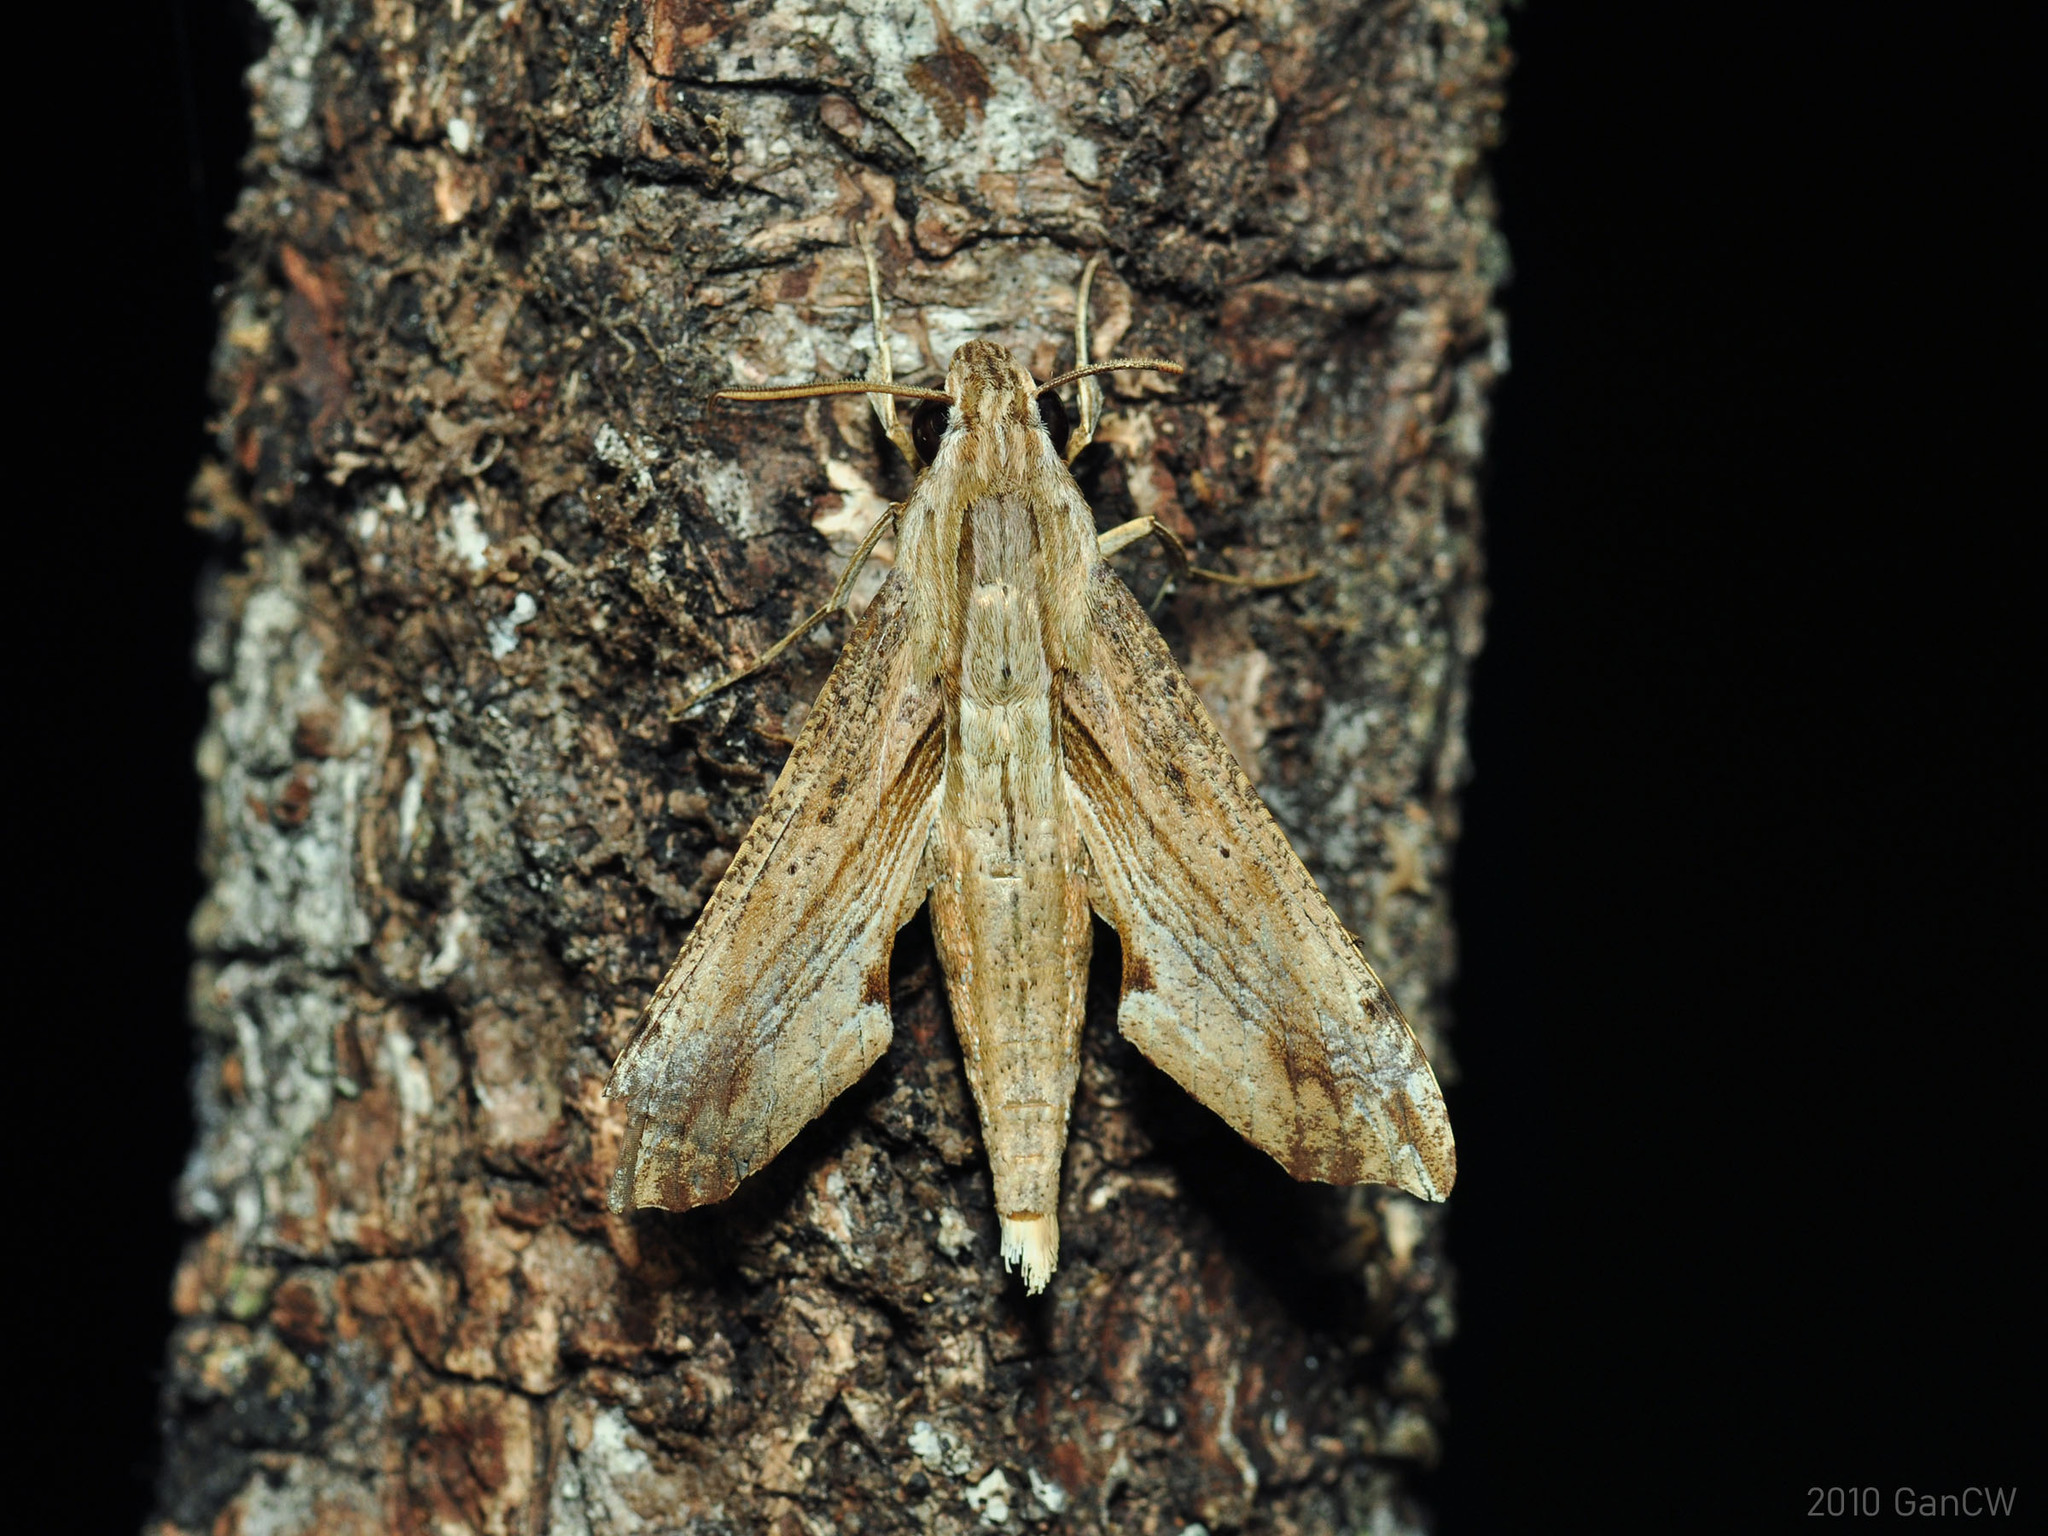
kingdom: Animalia
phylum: Arthropoda
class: Insecta
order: Lepidoptera
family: Sphingidae
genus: Eupanacra
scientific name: Eupanacra regularis
